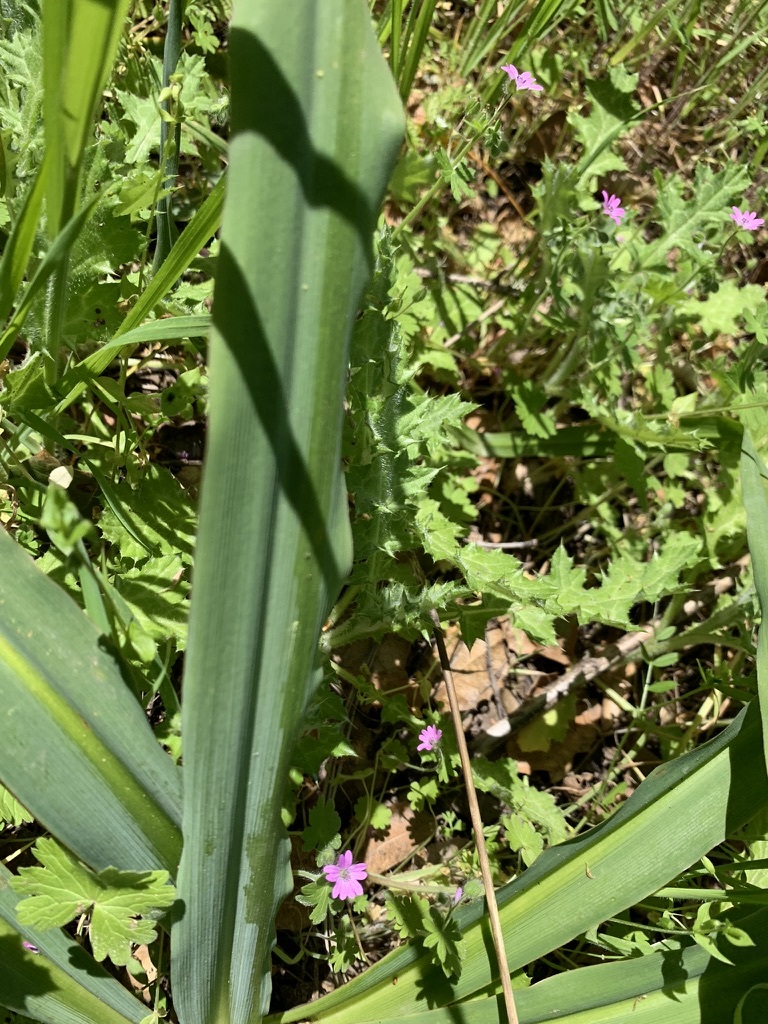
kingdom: Plantae
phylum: Tracheophyta
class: Liliopsida
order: Asparagales
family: Asparagaceae
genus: Chlorogalum
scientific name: Chlorogalum pomeridianum
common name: Amole
